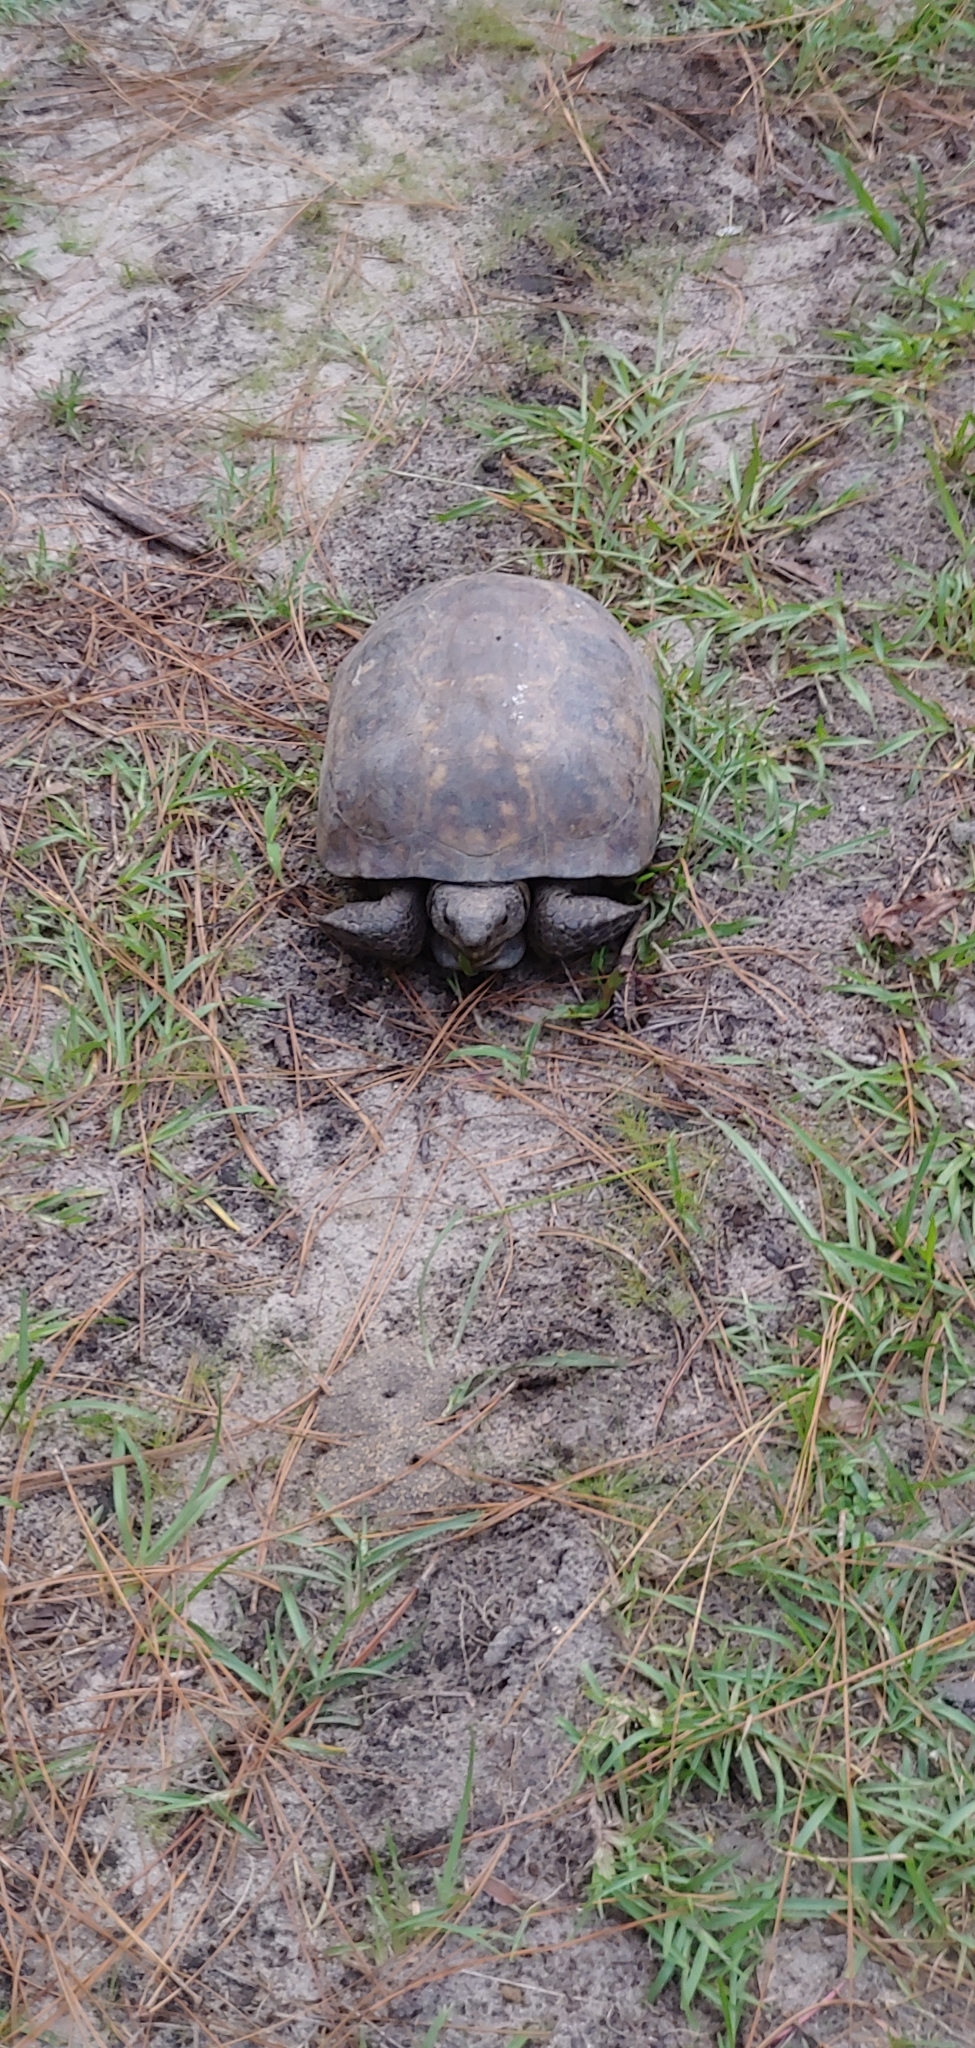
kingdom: Animalia
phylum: Chordata
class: Testudines
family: Testudinidae
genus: Gopherus
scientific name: Gopherus polyphemus
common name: Florida gopher tortoise
